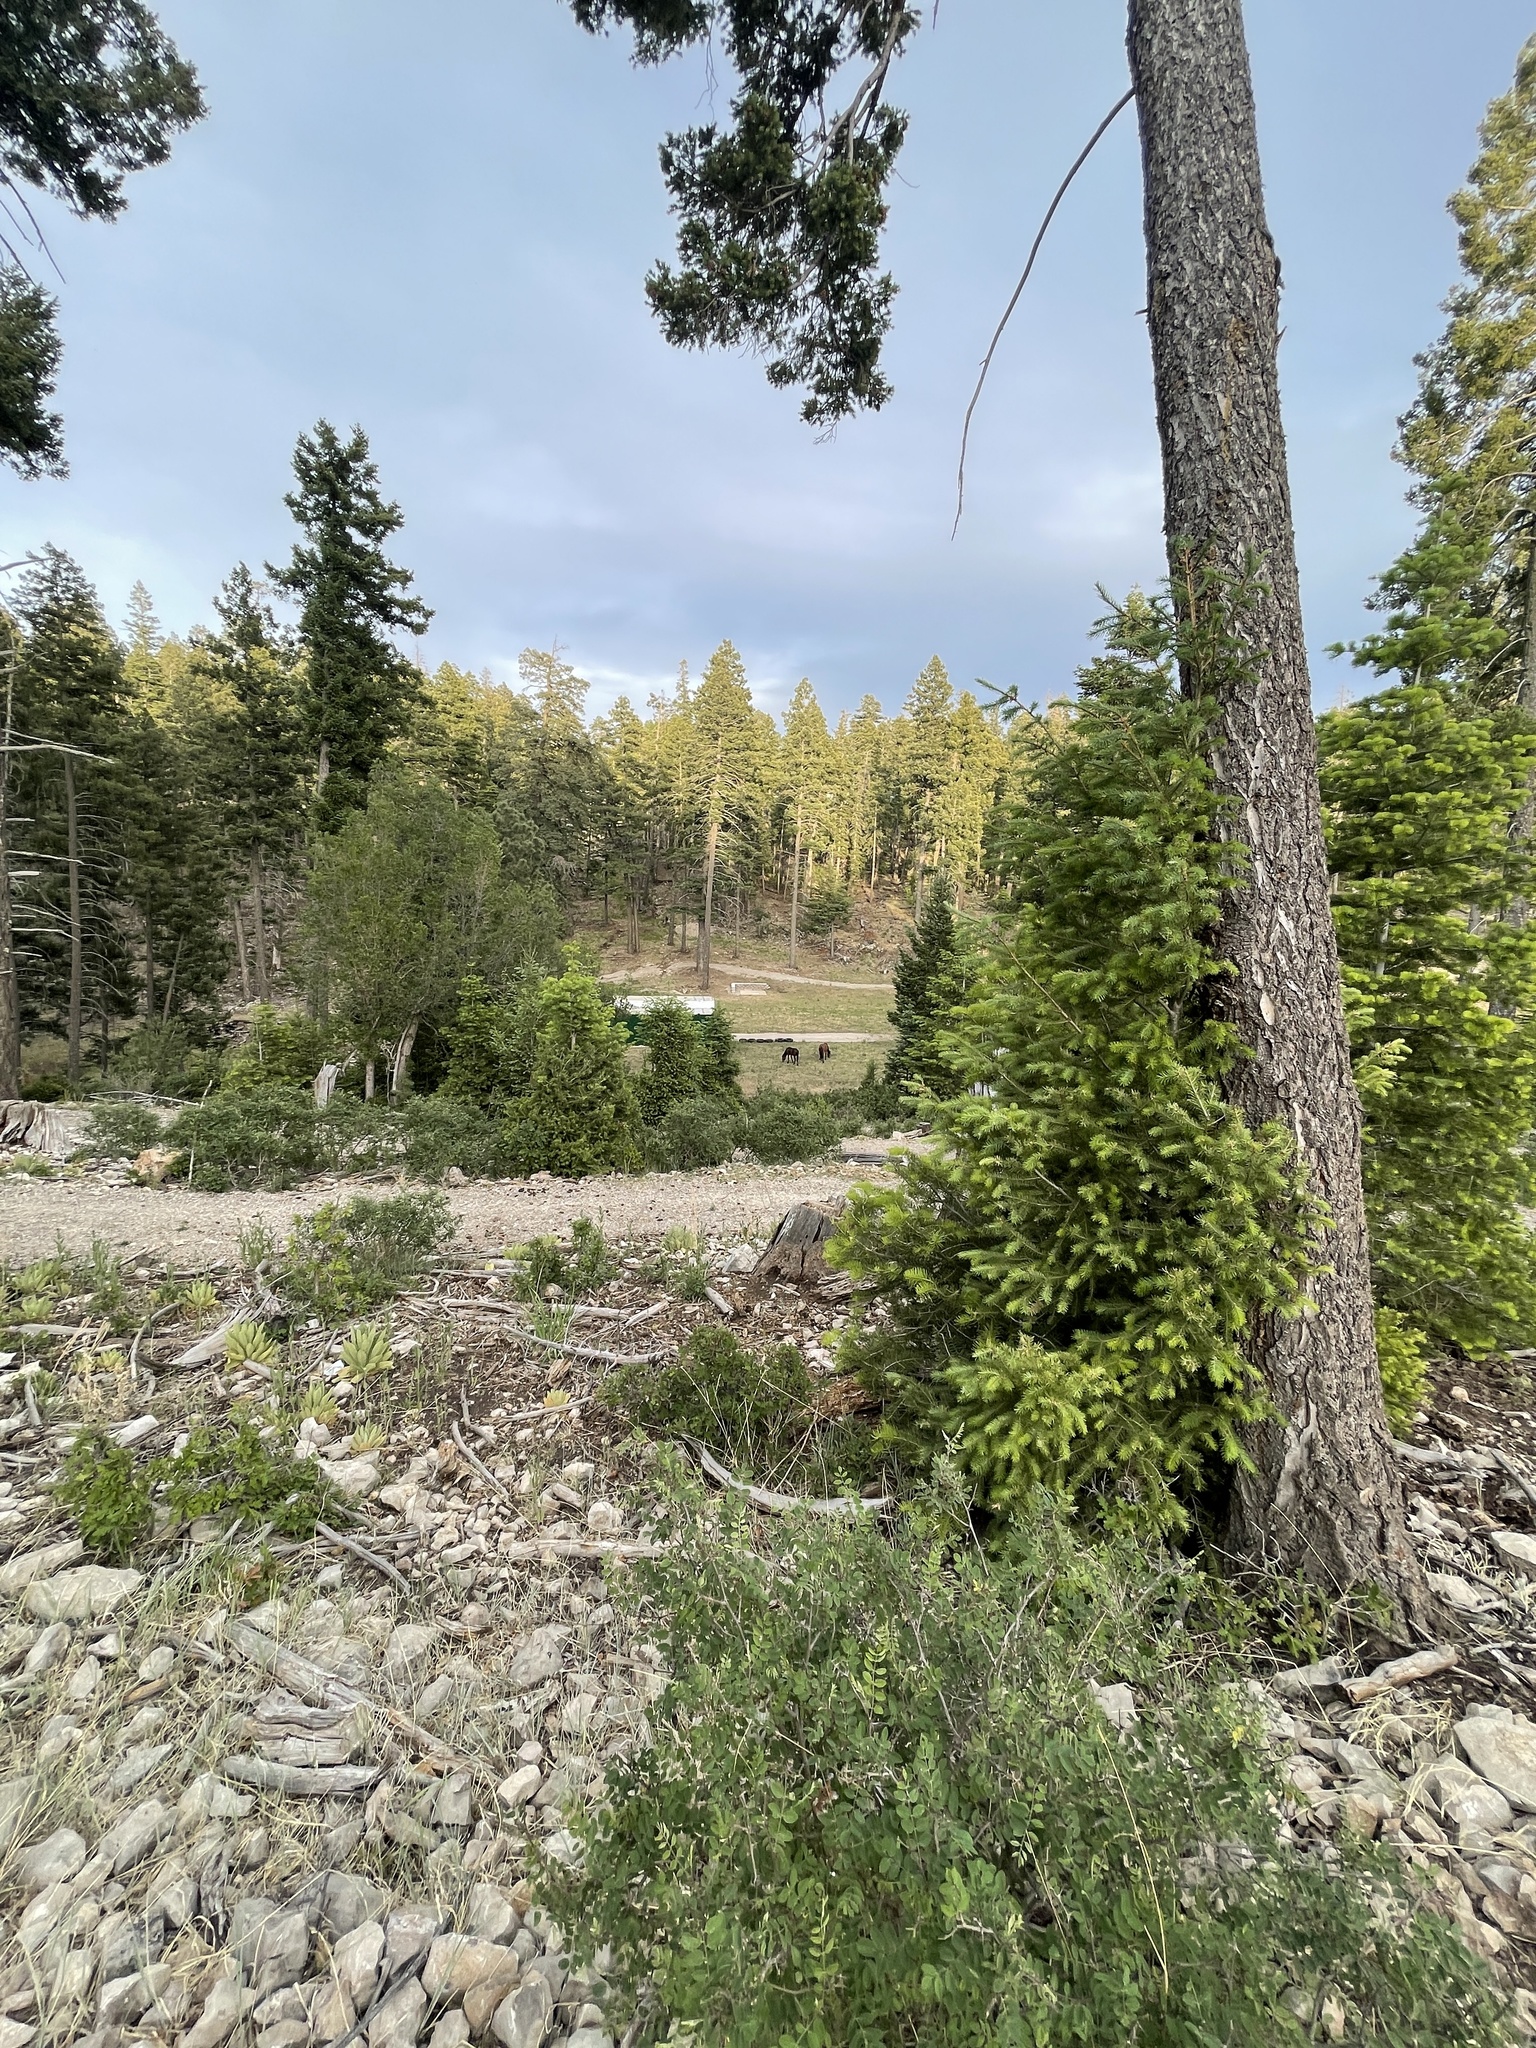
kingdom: Animalia
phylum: Chordata
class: Mammalia
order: Perissodactyla
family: Equidae
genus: Equus
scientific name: Equus caballus
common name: Horse
